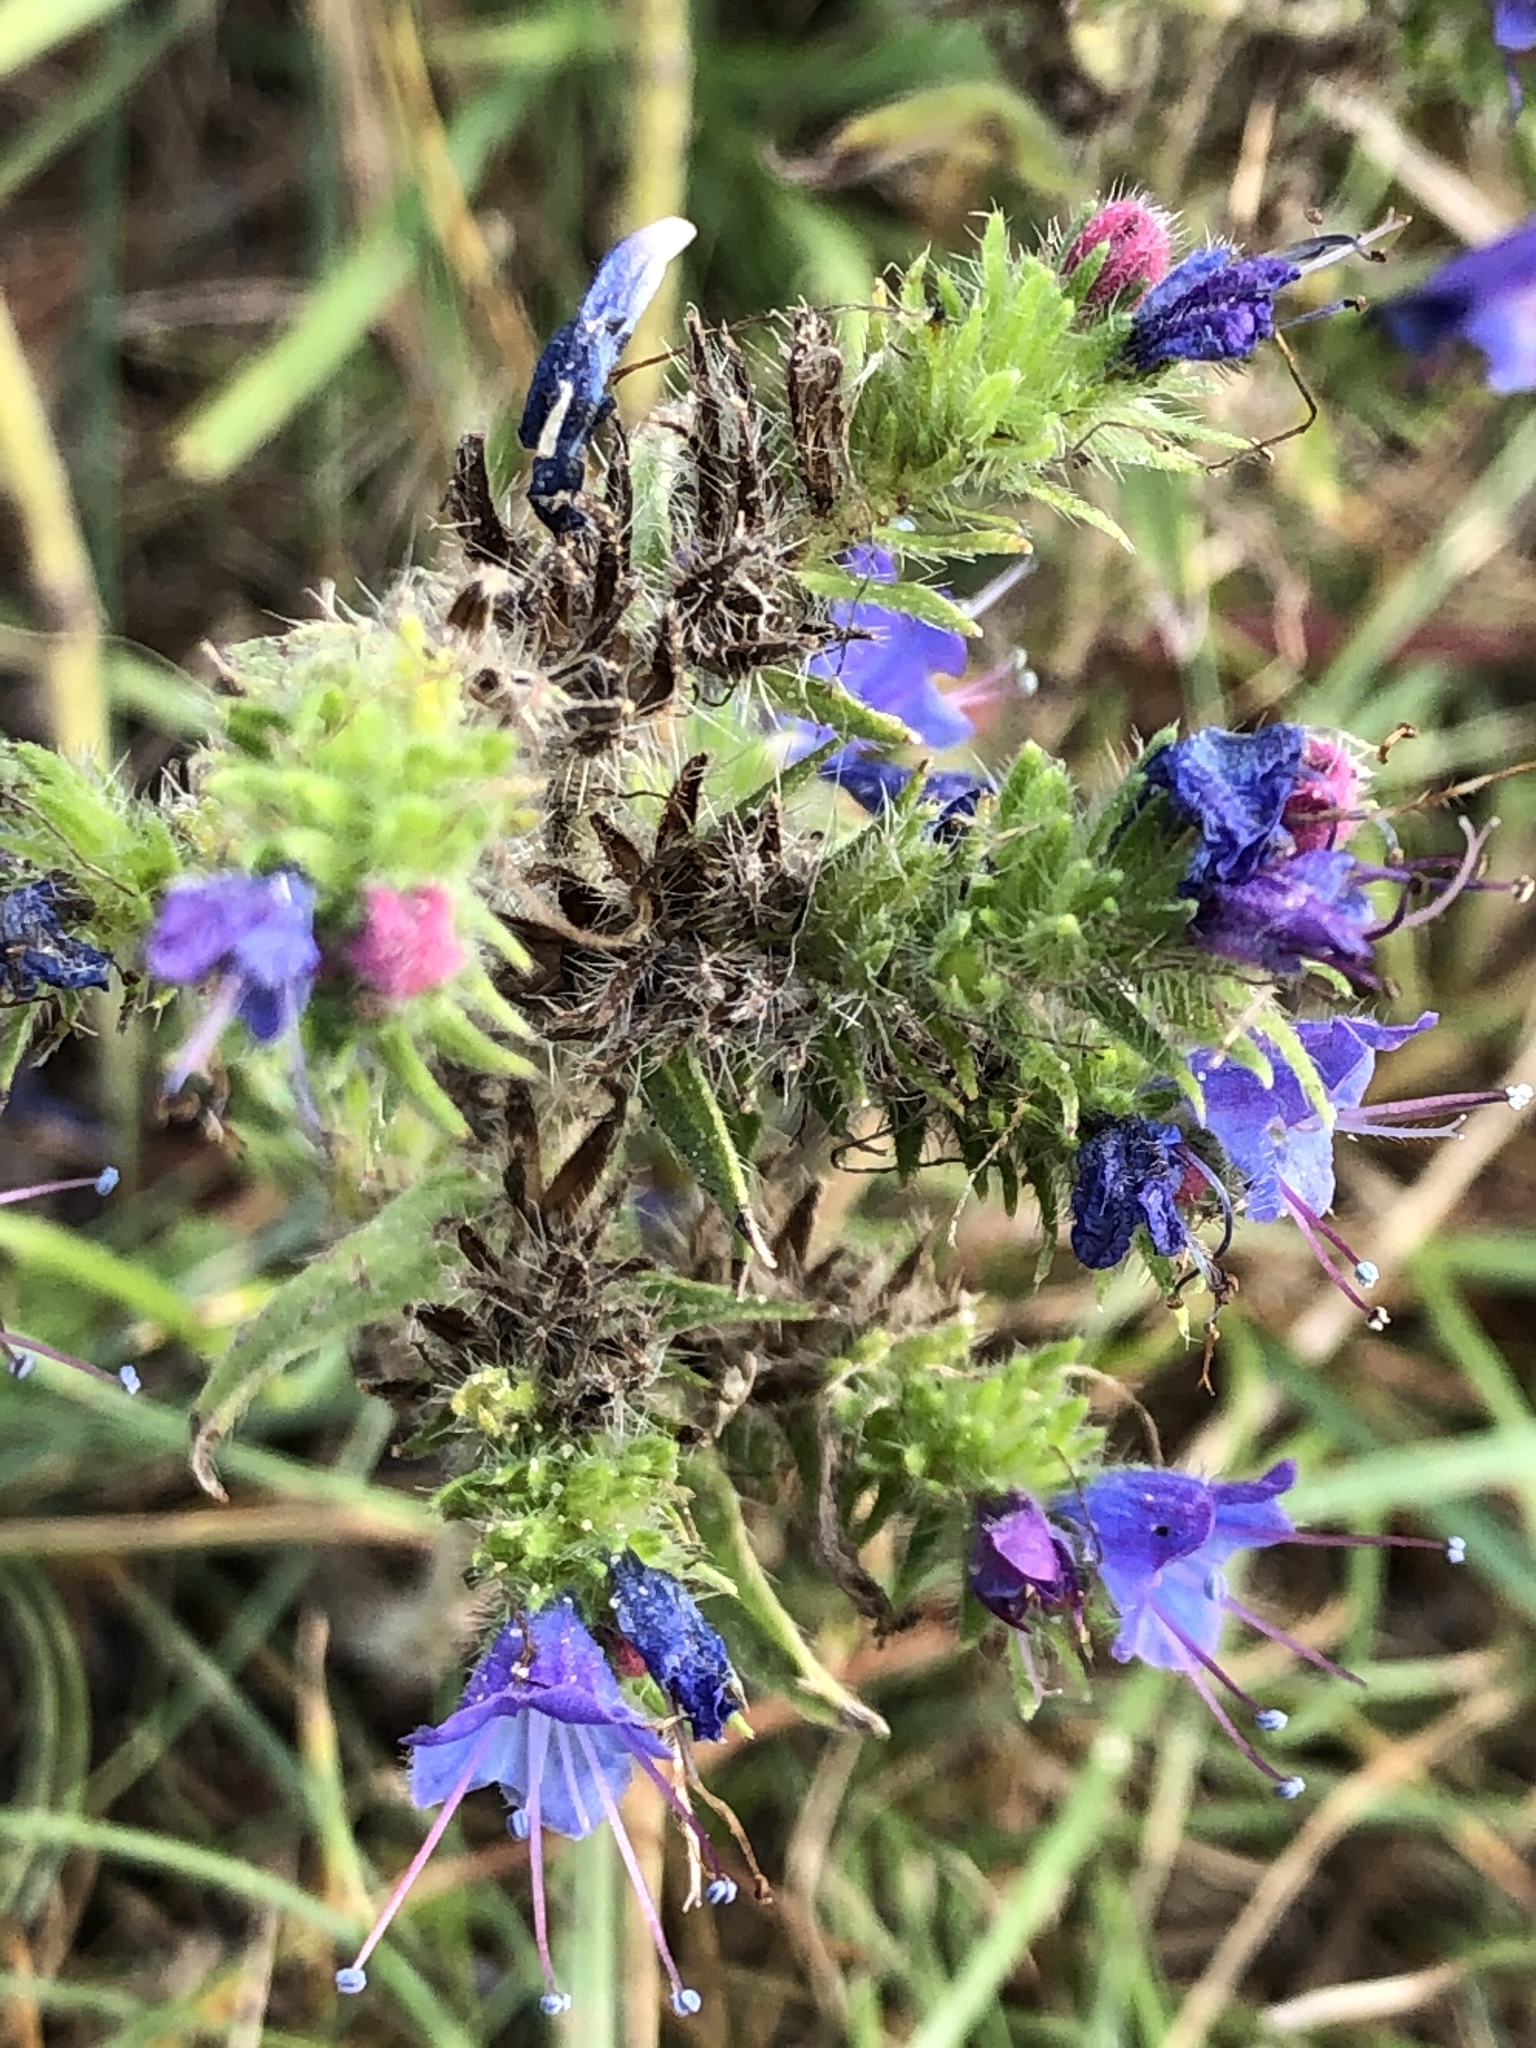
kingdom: Plantae
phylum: Tracheophyta
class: Magnoliopsida
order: Boraginales
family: Boraginaceae
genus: Echium
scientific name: Echium vulgare
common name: Common viper's bugloss
